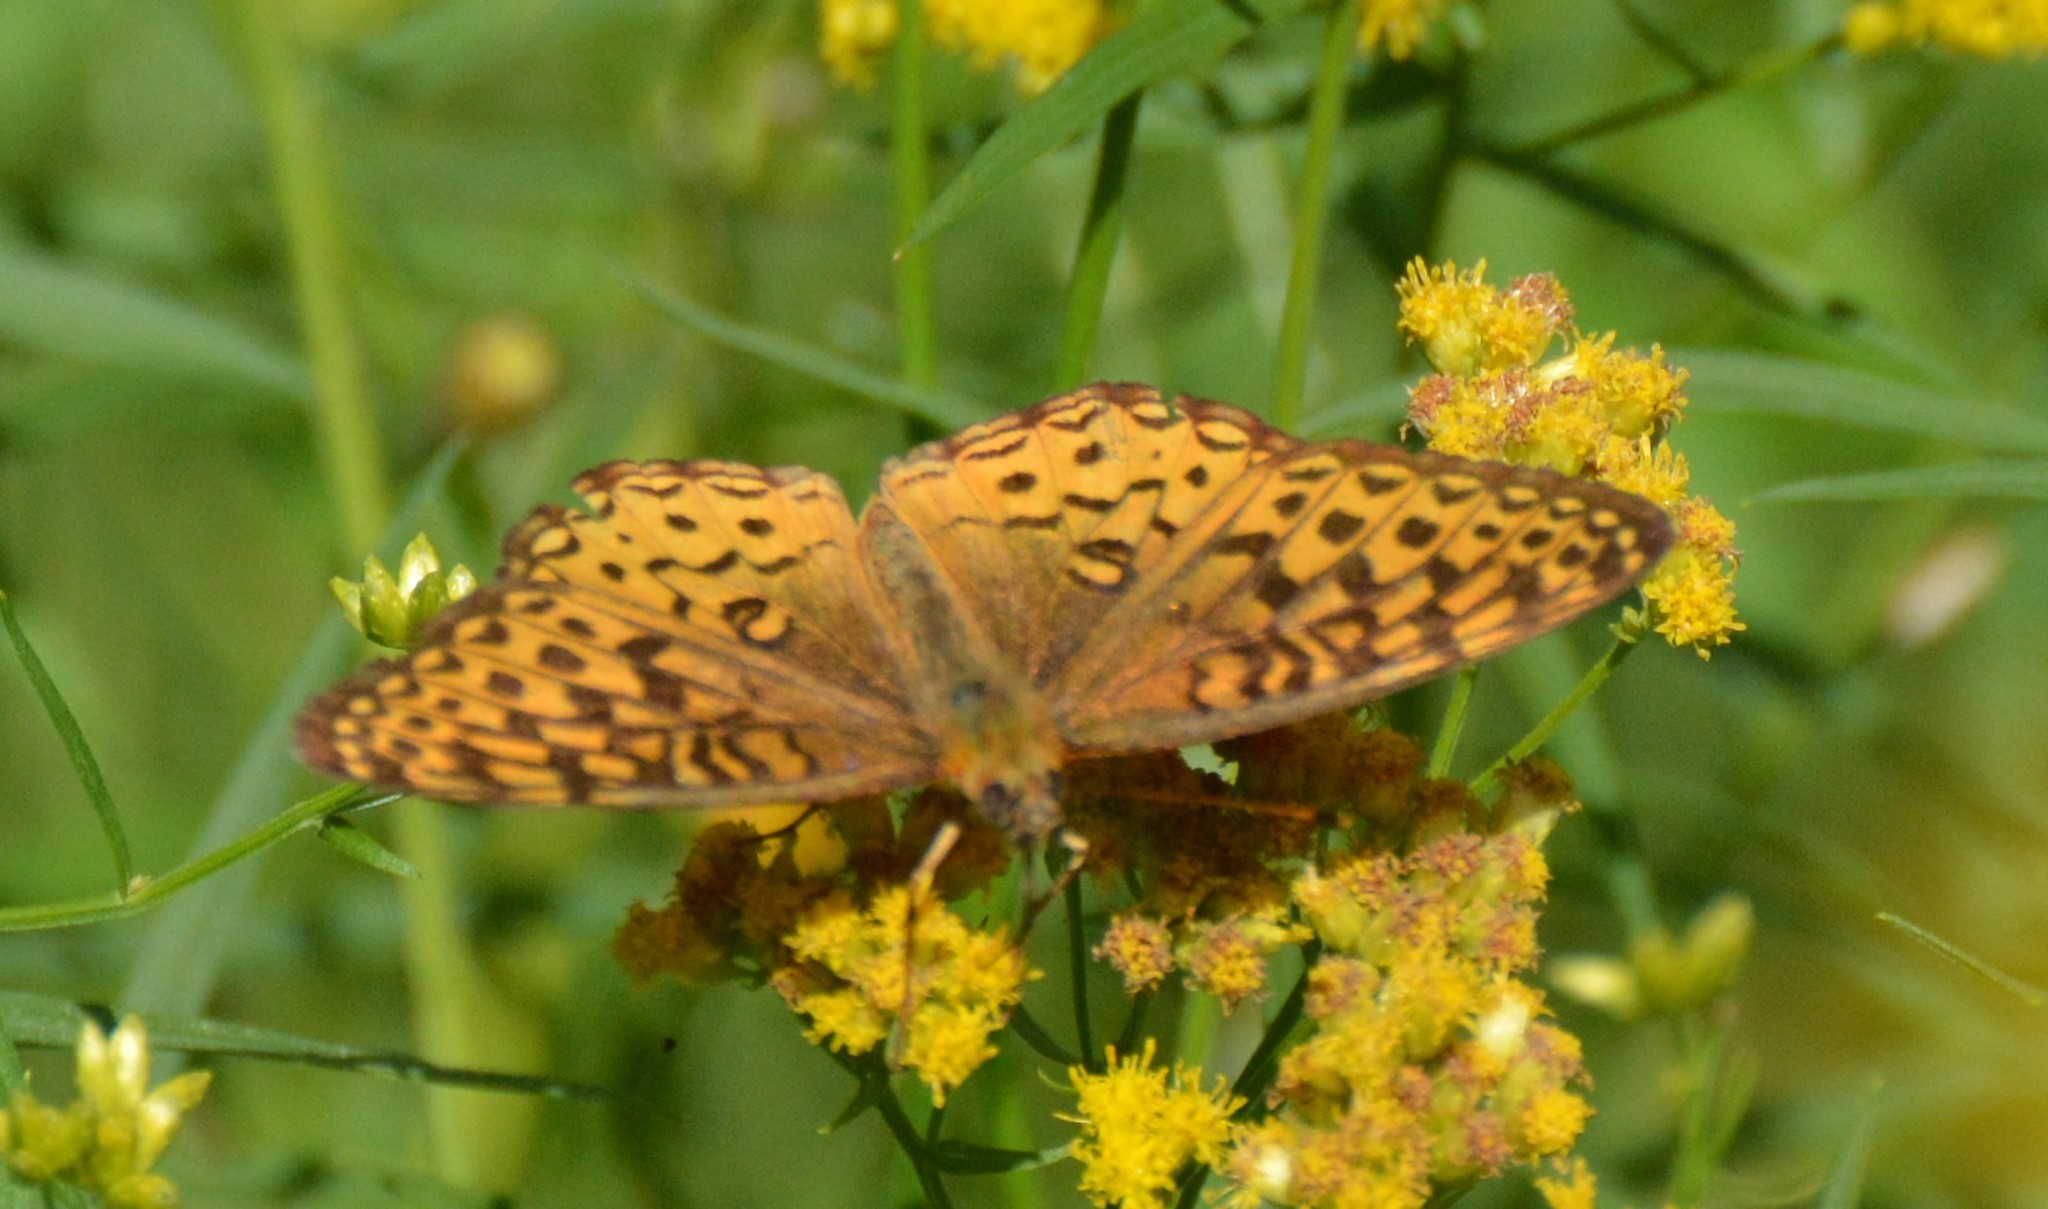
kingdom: Animalia
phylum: Arthropoda
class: Insecta
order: Lepidoptera
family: Nymphalidae
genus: Speyeria
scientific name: Speyeria atlantis
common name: Atlantis fritillary
